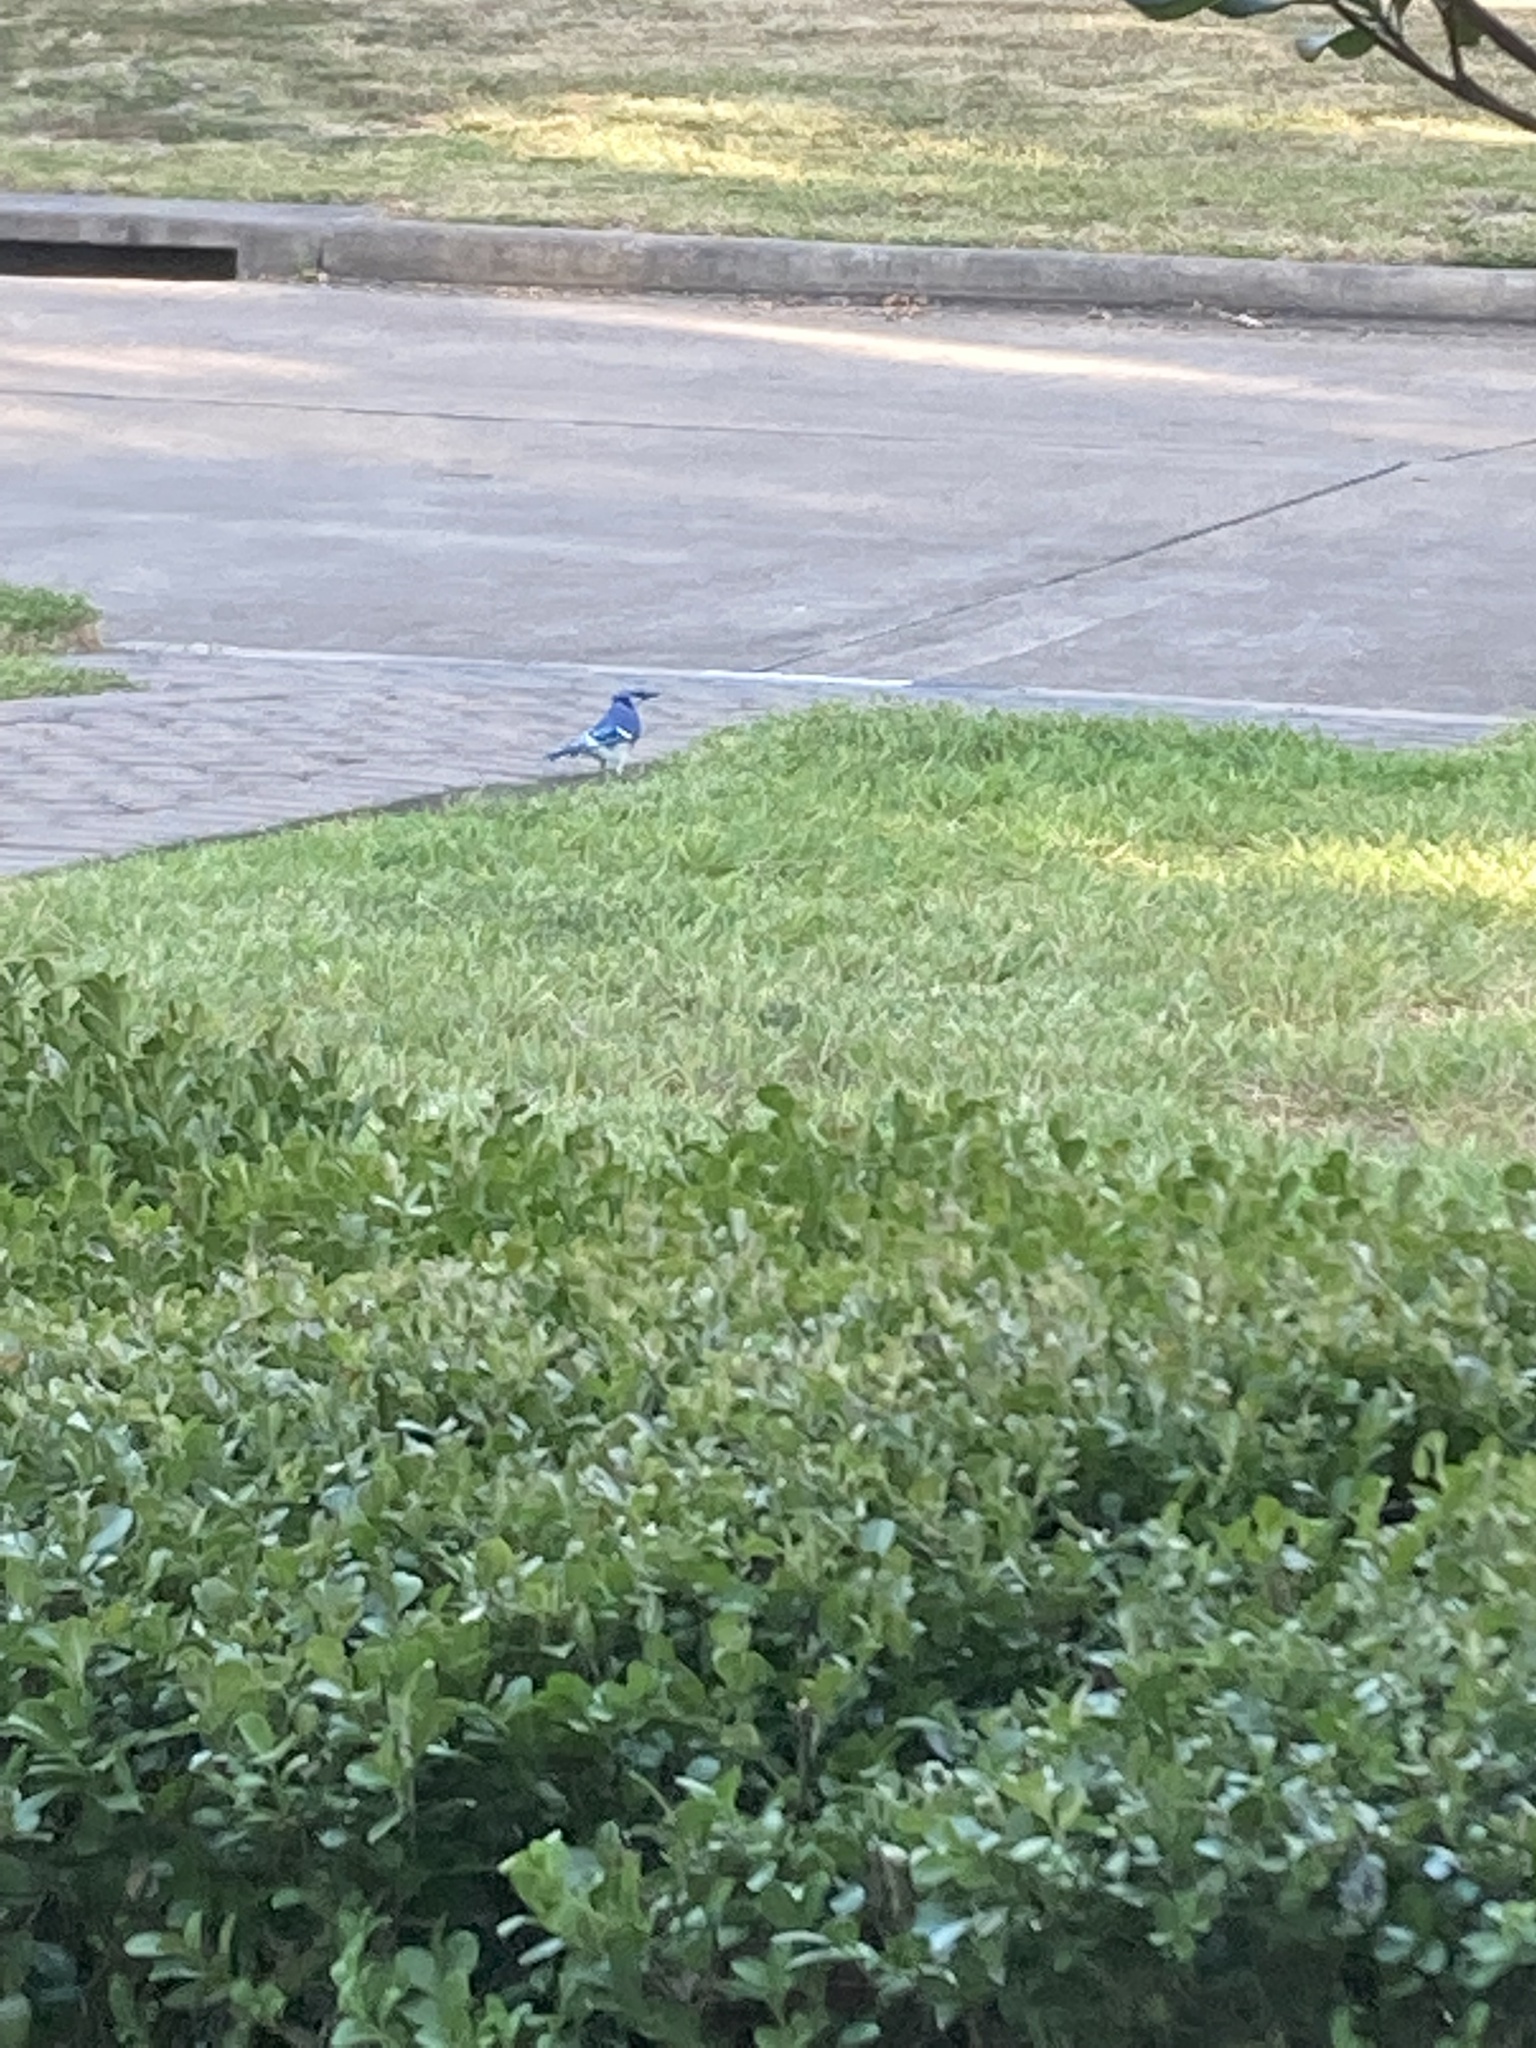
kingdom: Animalia
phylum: Chordata
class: Aves
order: Passeriformes
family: Corvidae
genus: Cyanocitta
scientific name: Cyanocitta cristata
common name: Blue jay
